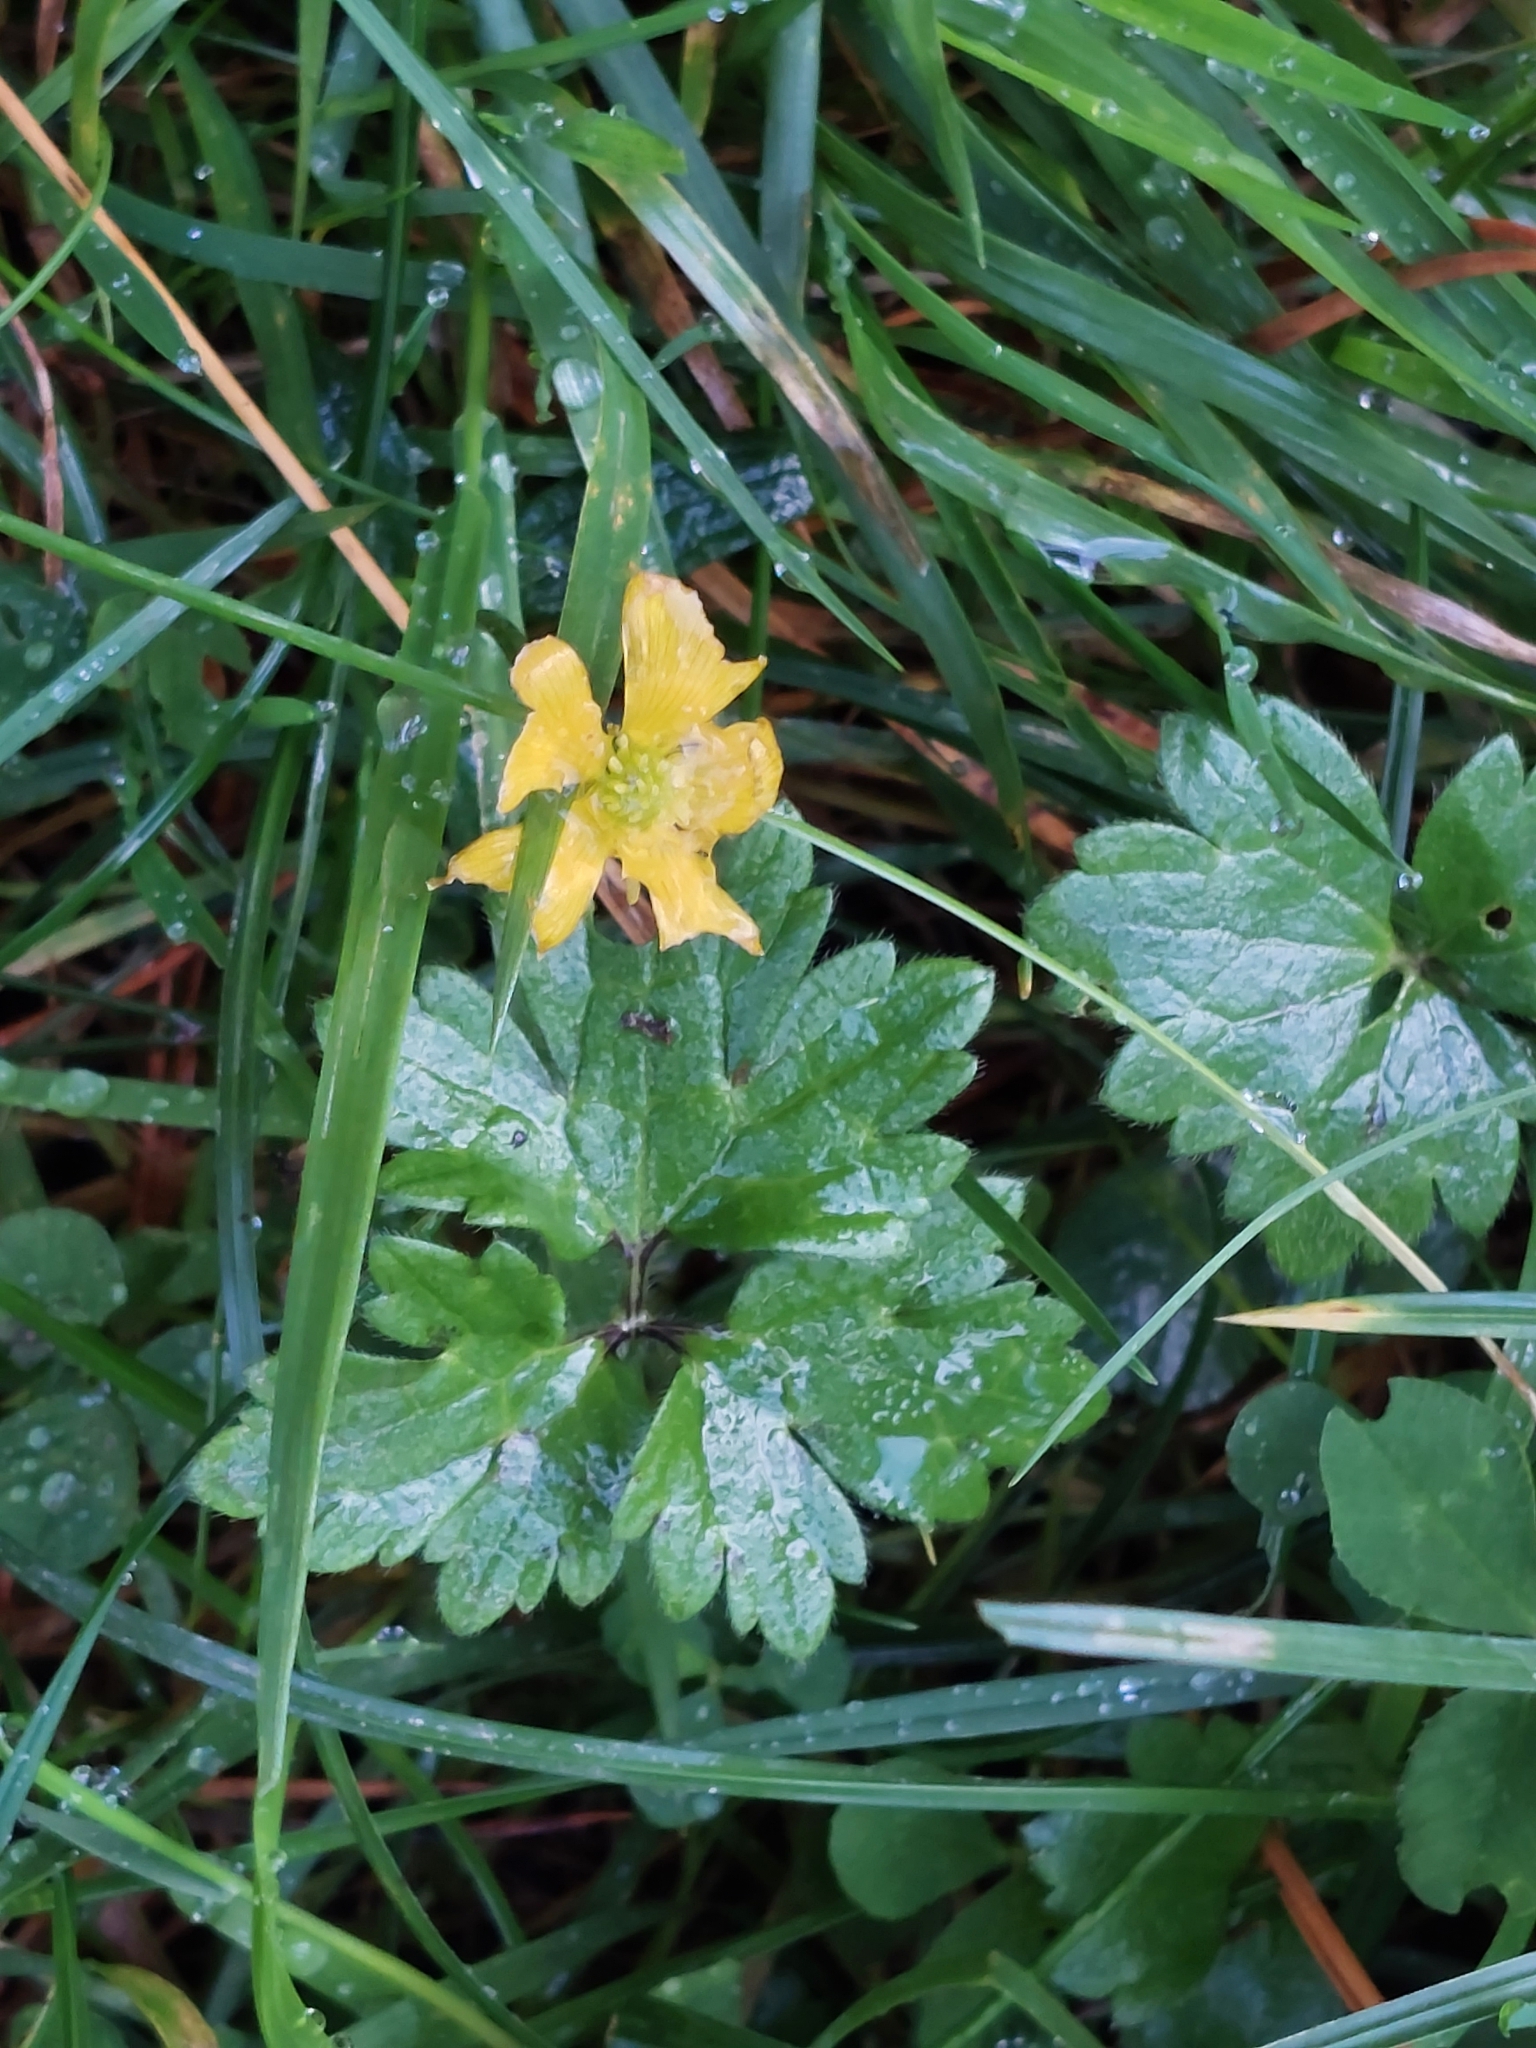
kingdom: Plantae
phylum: Tracheophyta
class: Magnoliopsida
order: Ranunculales
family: Ranunculaceae
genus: Ranunculus
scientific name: Ranunculus repens
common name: Creeping buttercup
